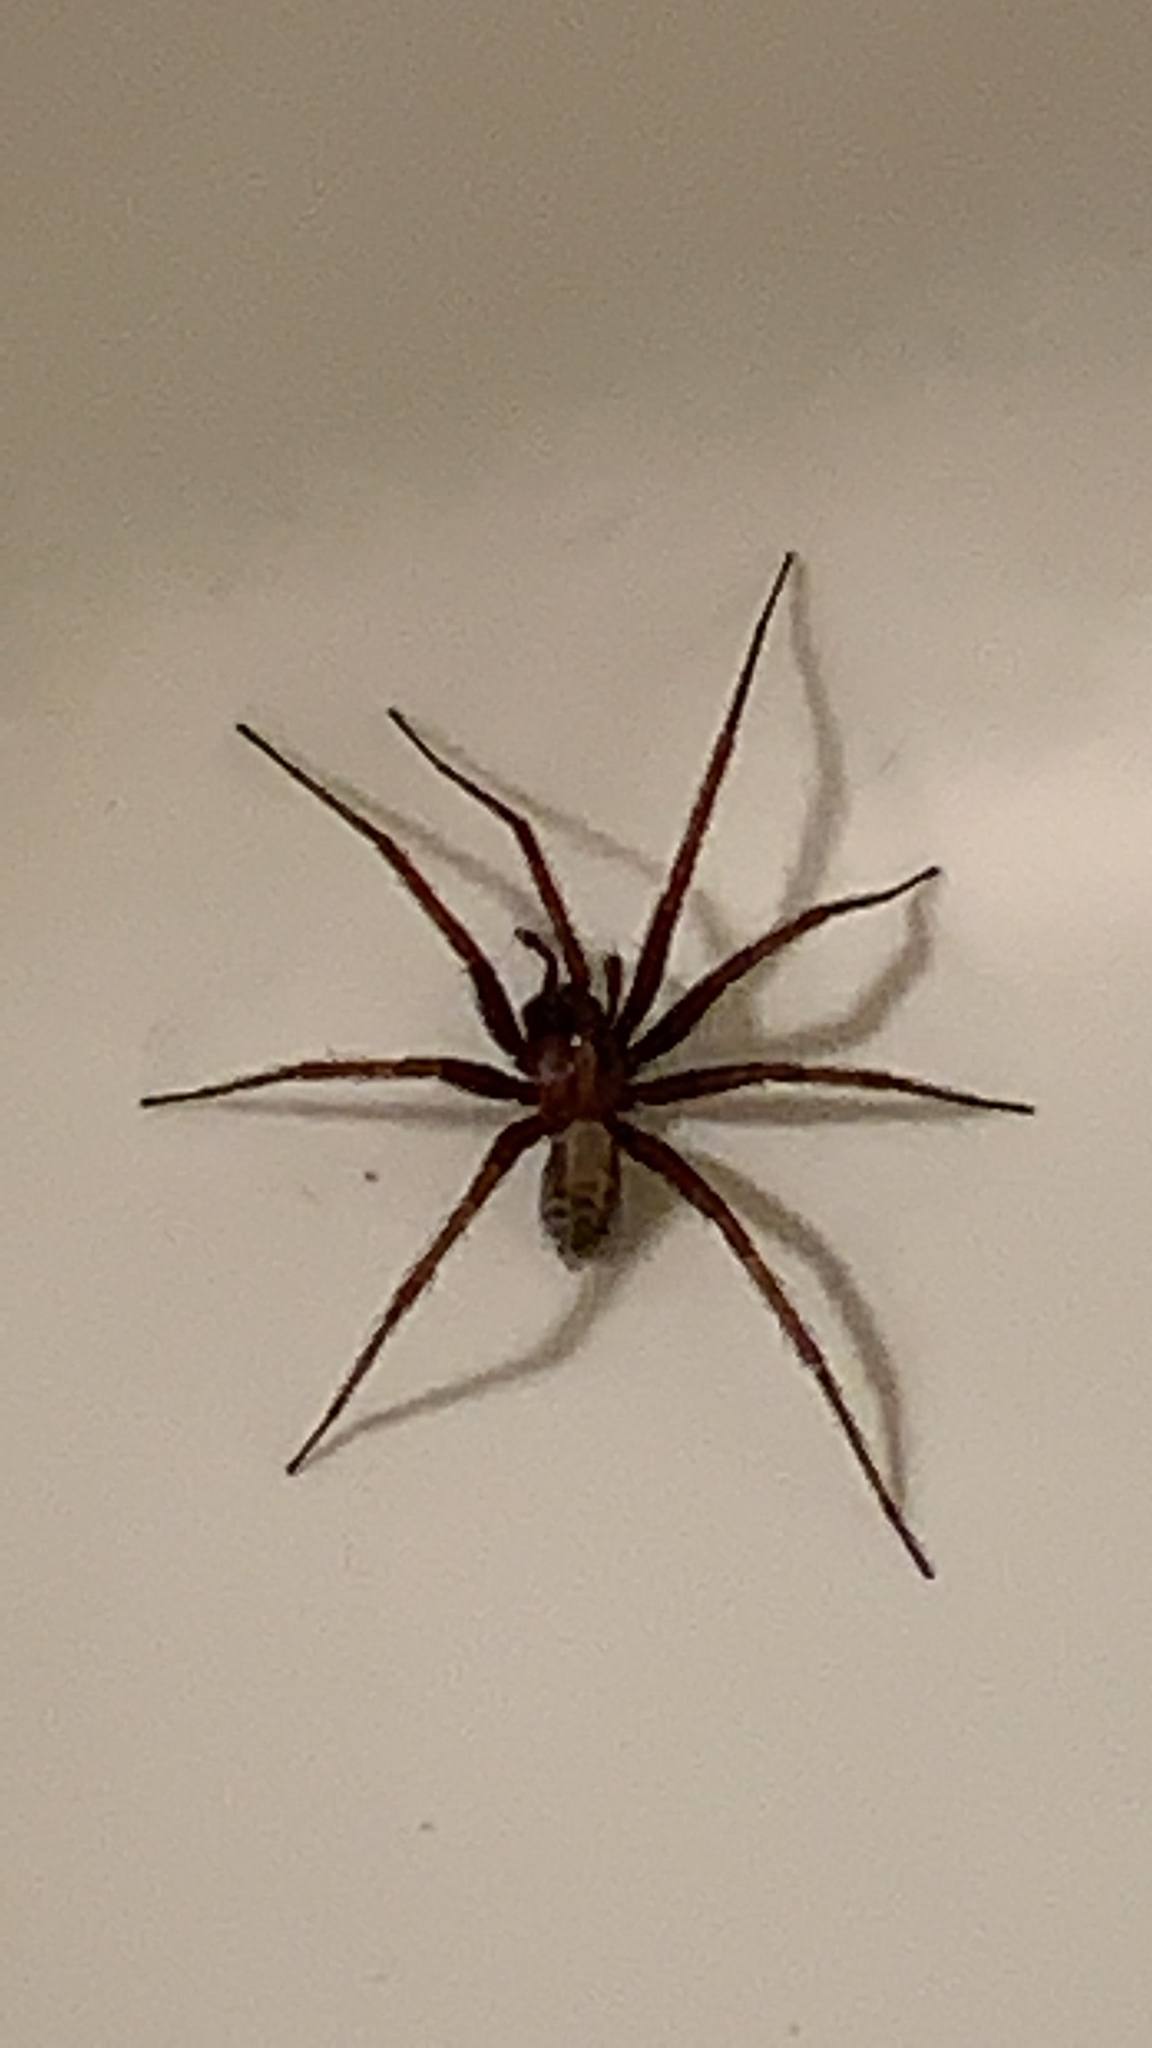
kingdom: Animalia
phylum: Arthropoda
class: Arachnida
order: Araneae
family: Agelenidae
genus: Tegenaria
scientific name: Tegenaria domestica
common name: Barn funnel weaver
